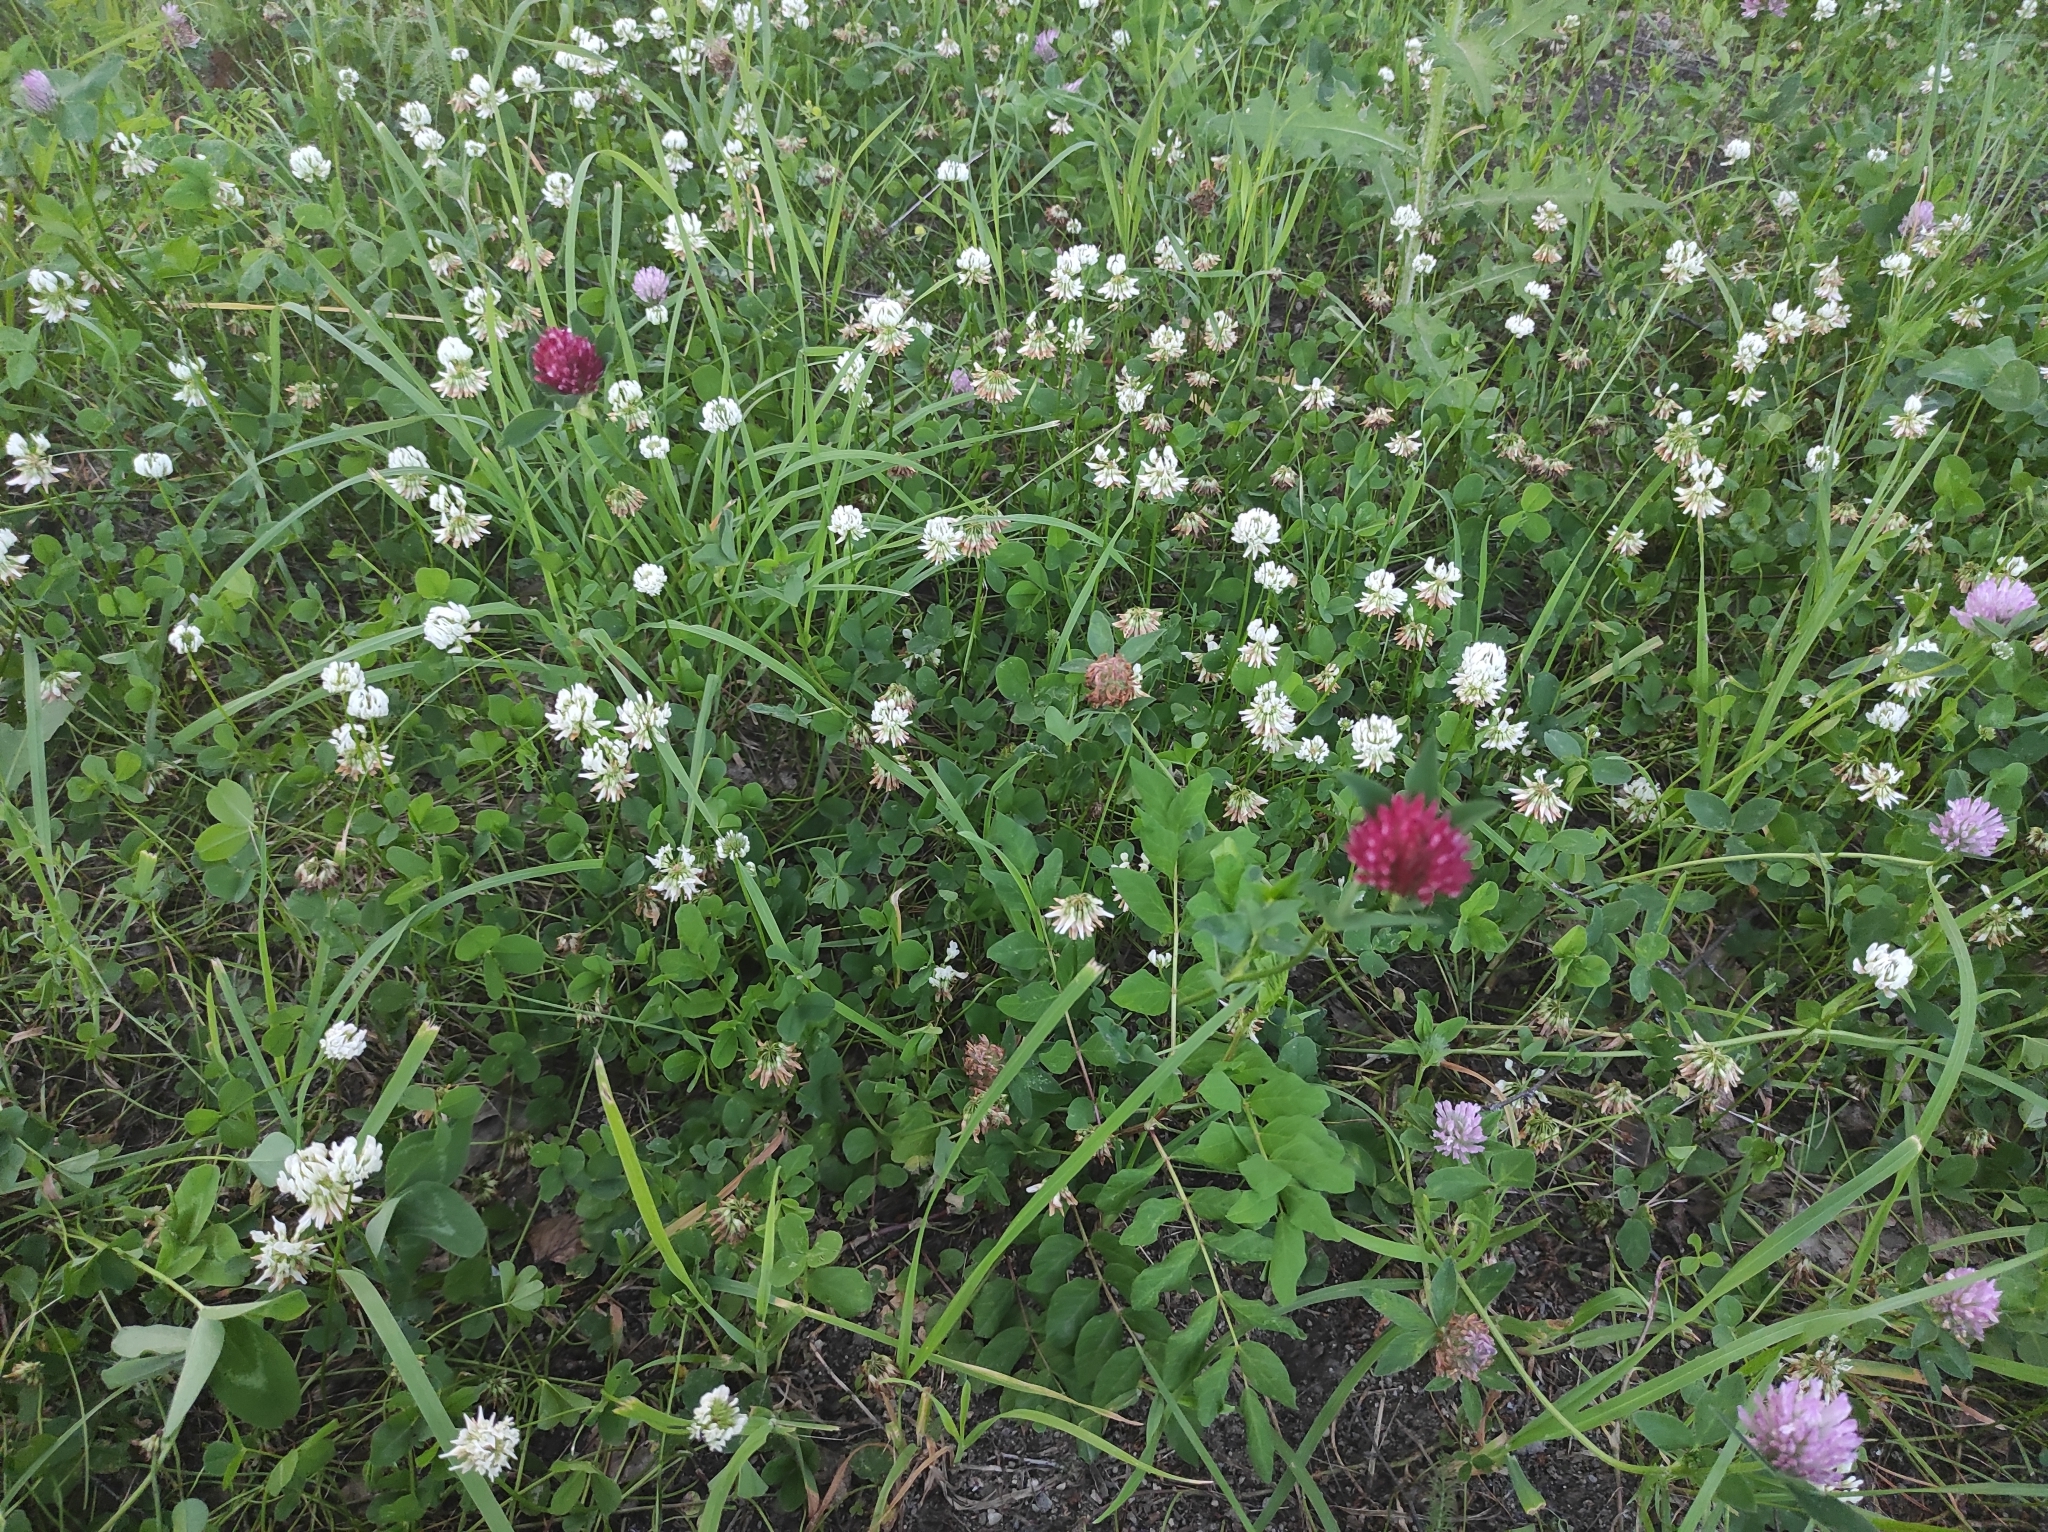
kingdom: Plantae
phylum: Tracheophyta
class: Magnoliopsida
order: Fabales
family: Fabaceae
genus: Trifolium
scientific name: Trifolium pratense
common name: Red clover
